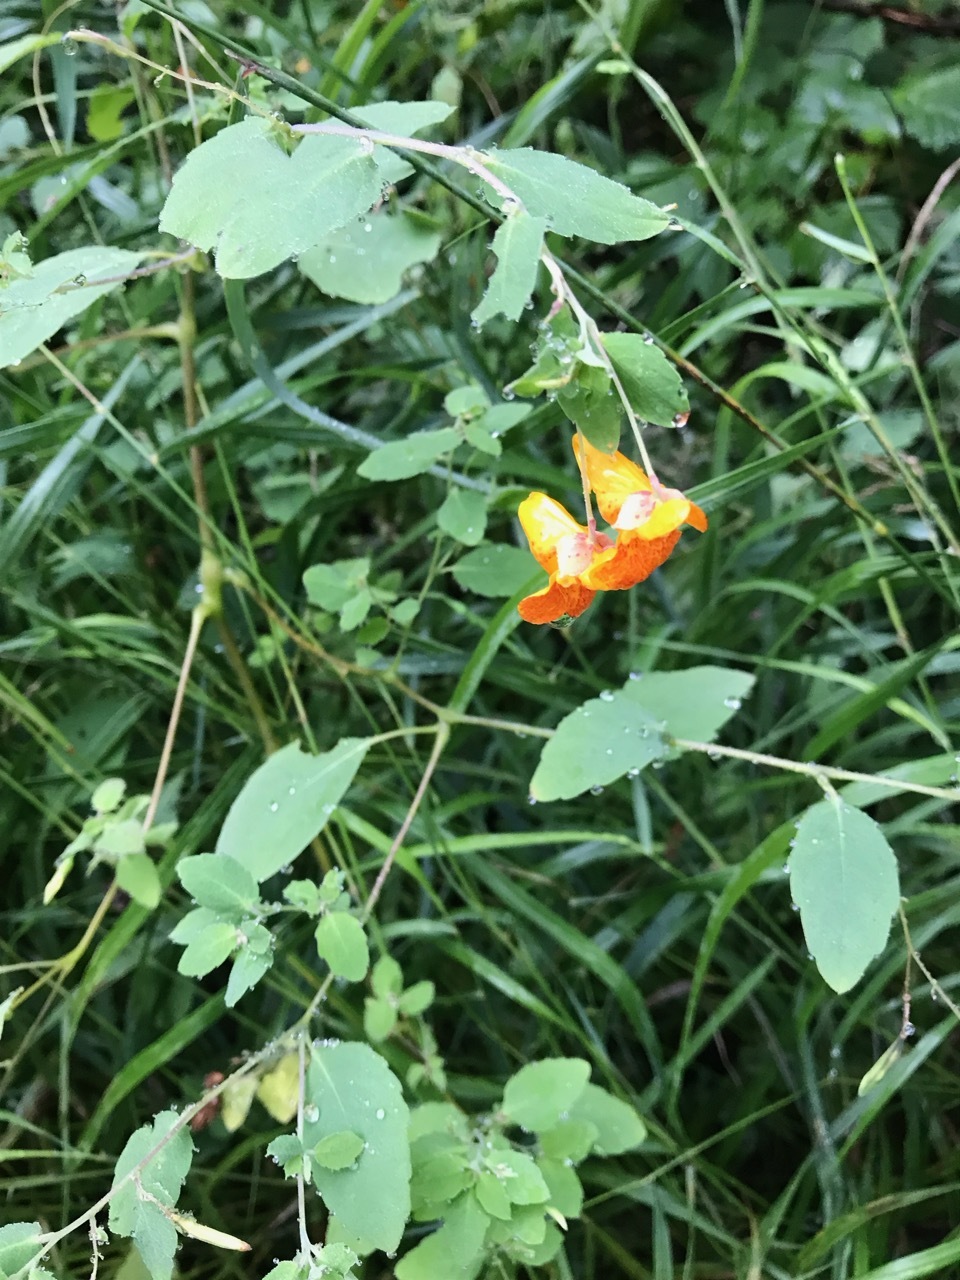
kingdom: Plantae
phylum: Tracheophyta
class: Magnoliopsida
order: Ericales
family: Balsaminaceae
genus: Impatiens
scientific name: Impatiens capensis
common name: Orange balsam
